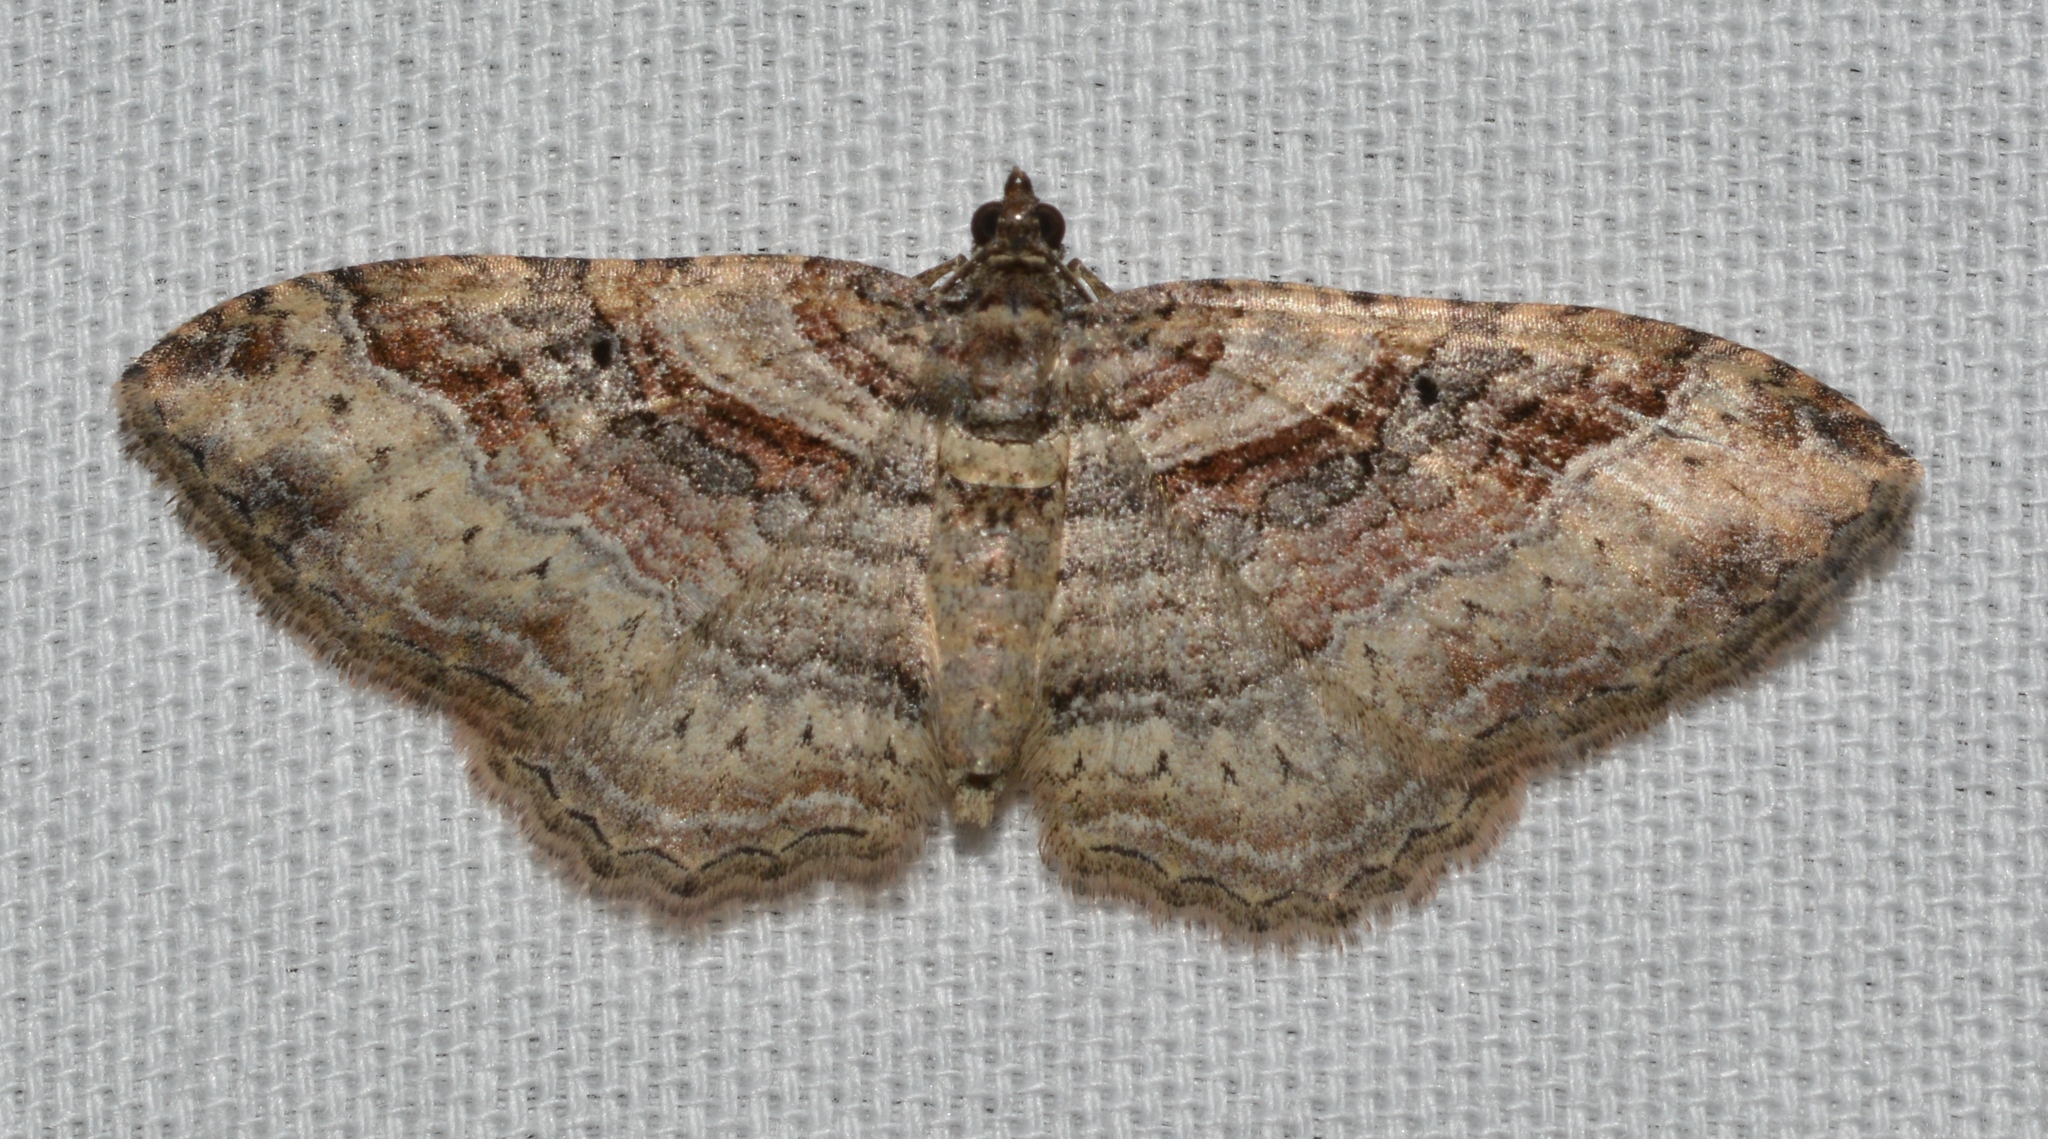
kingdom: Animalia
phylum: Arthropoda
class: Insecta
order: Lepidoptera
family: Geometridae
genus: Costaconvexa
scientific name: Costaconvexa centrostrigaria
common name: Bent-line carpet
